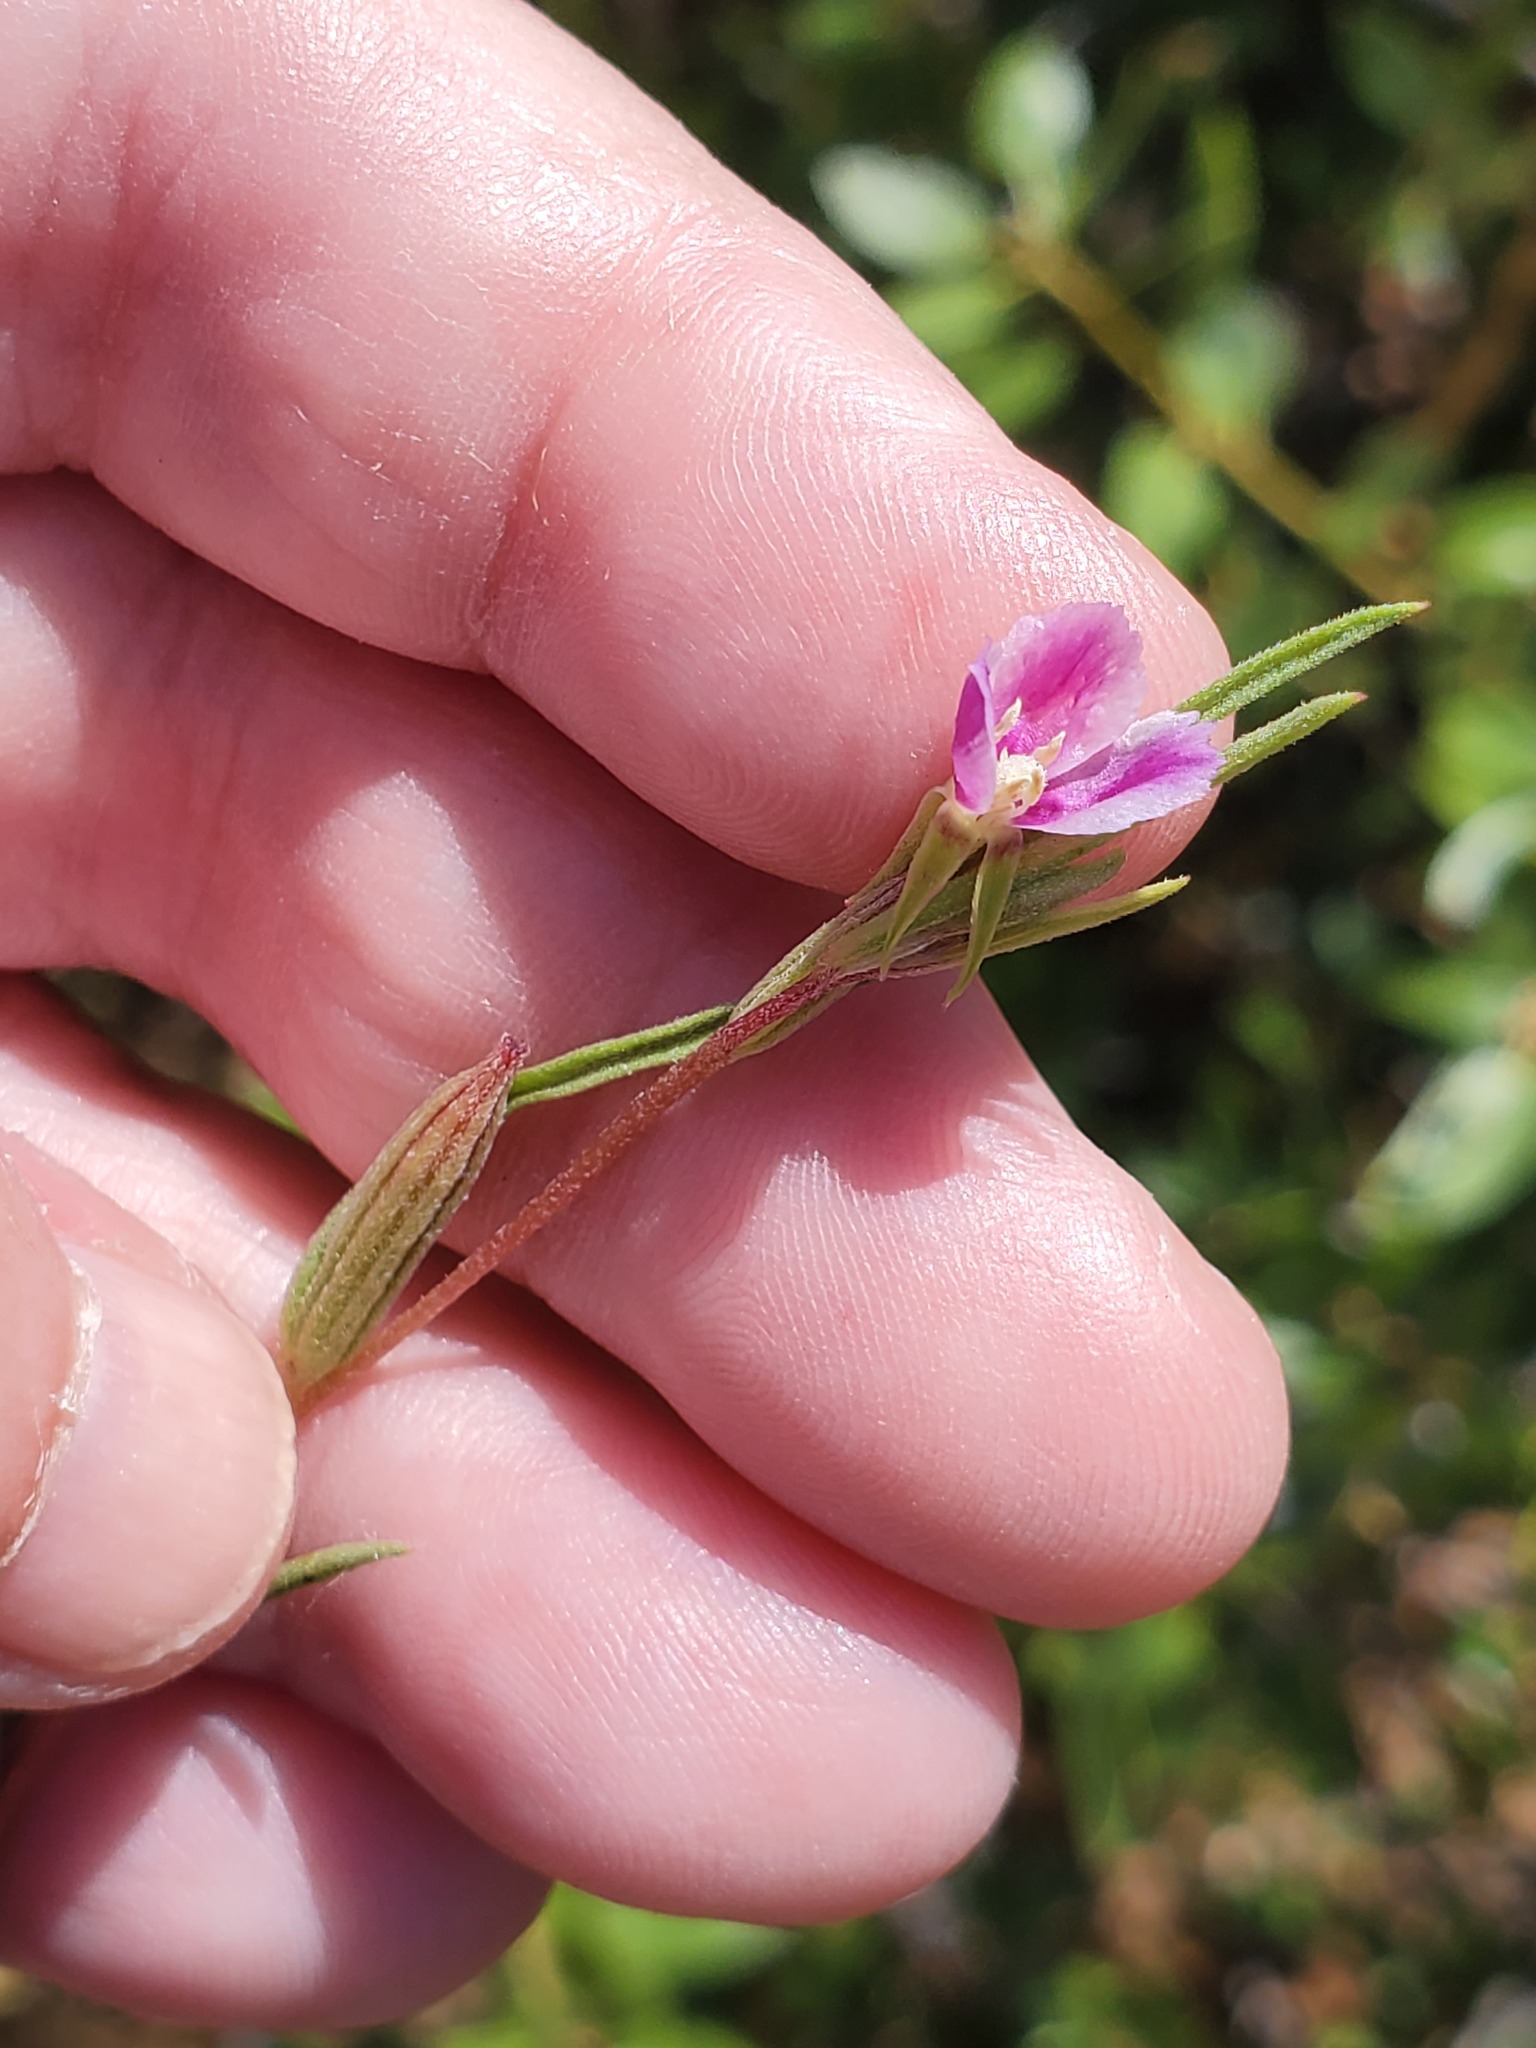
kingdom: Plantae
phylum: Tracheophyta
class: Magnoliopsida
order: Myrtales
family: Onagraceae
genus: Clarkia
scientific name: Clarkia purpurea
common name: Purple clarkia
